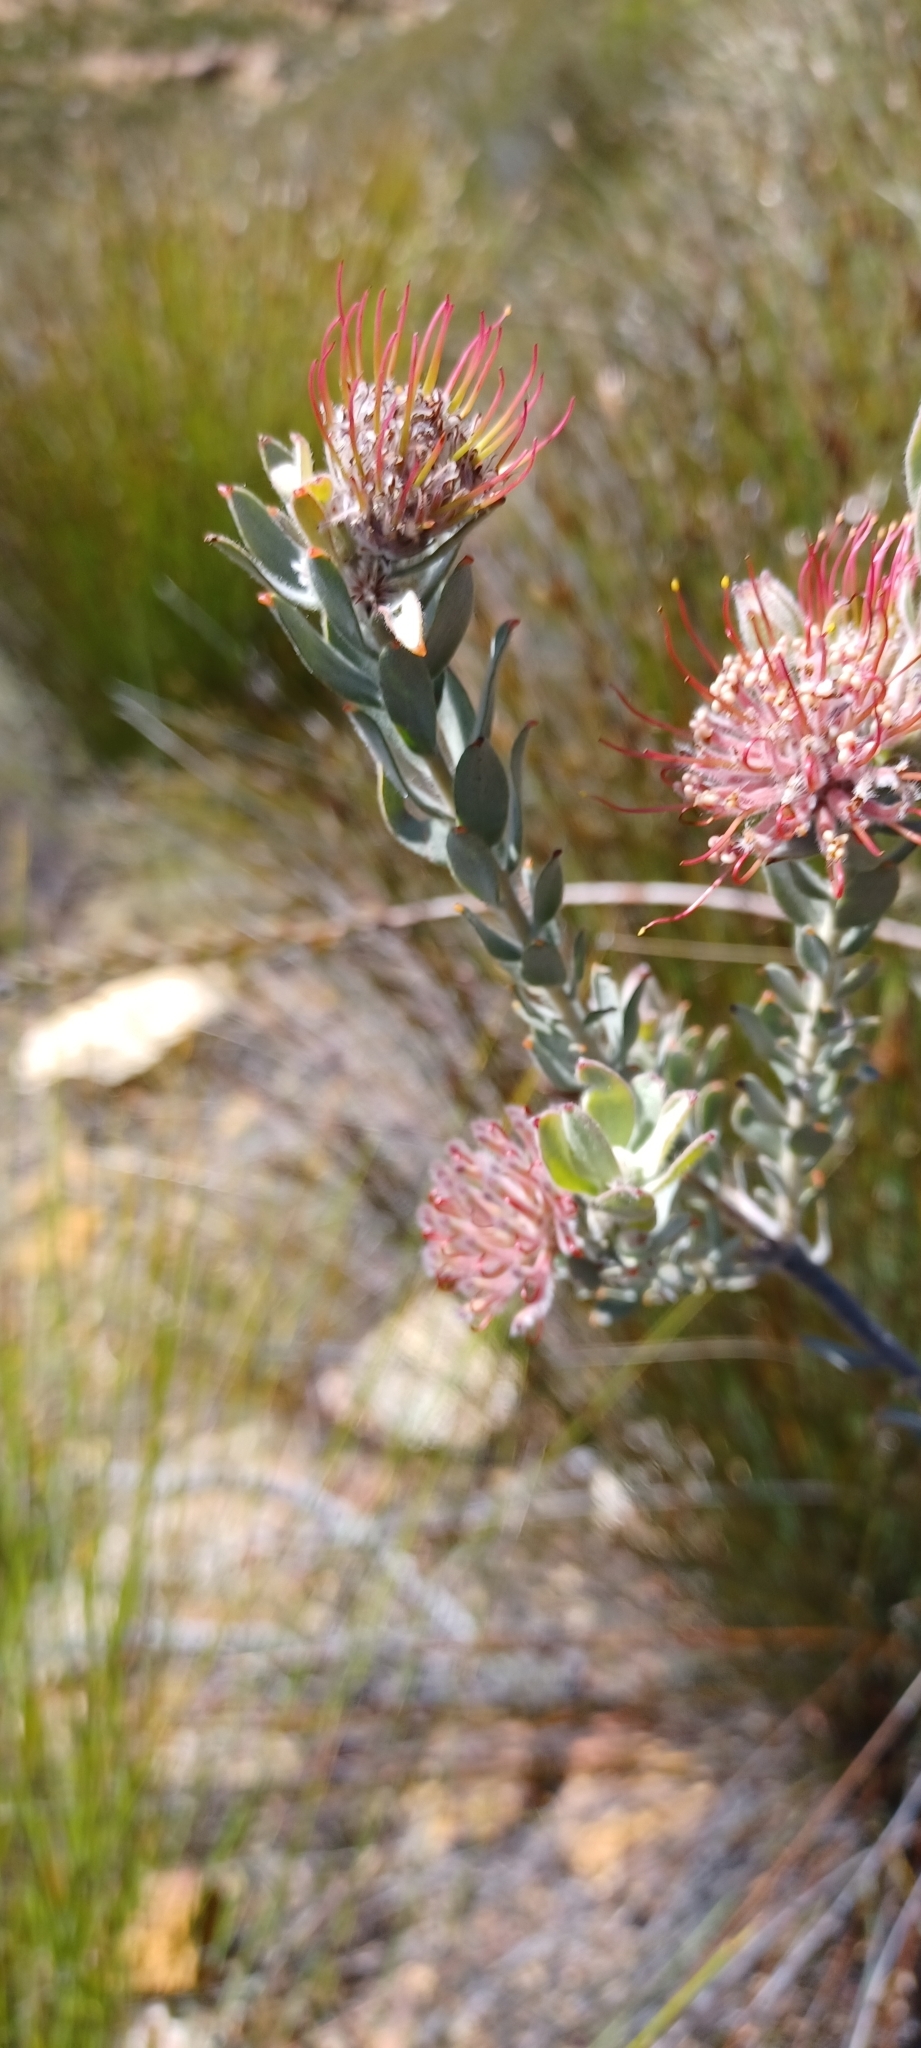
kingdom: Plantae
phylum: Tracheophyta
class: Magnoliopsida
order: Proteales
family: Proteaceae
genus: Leucospermum
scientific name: Leucospermum calligerum
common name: Arid pincushion
